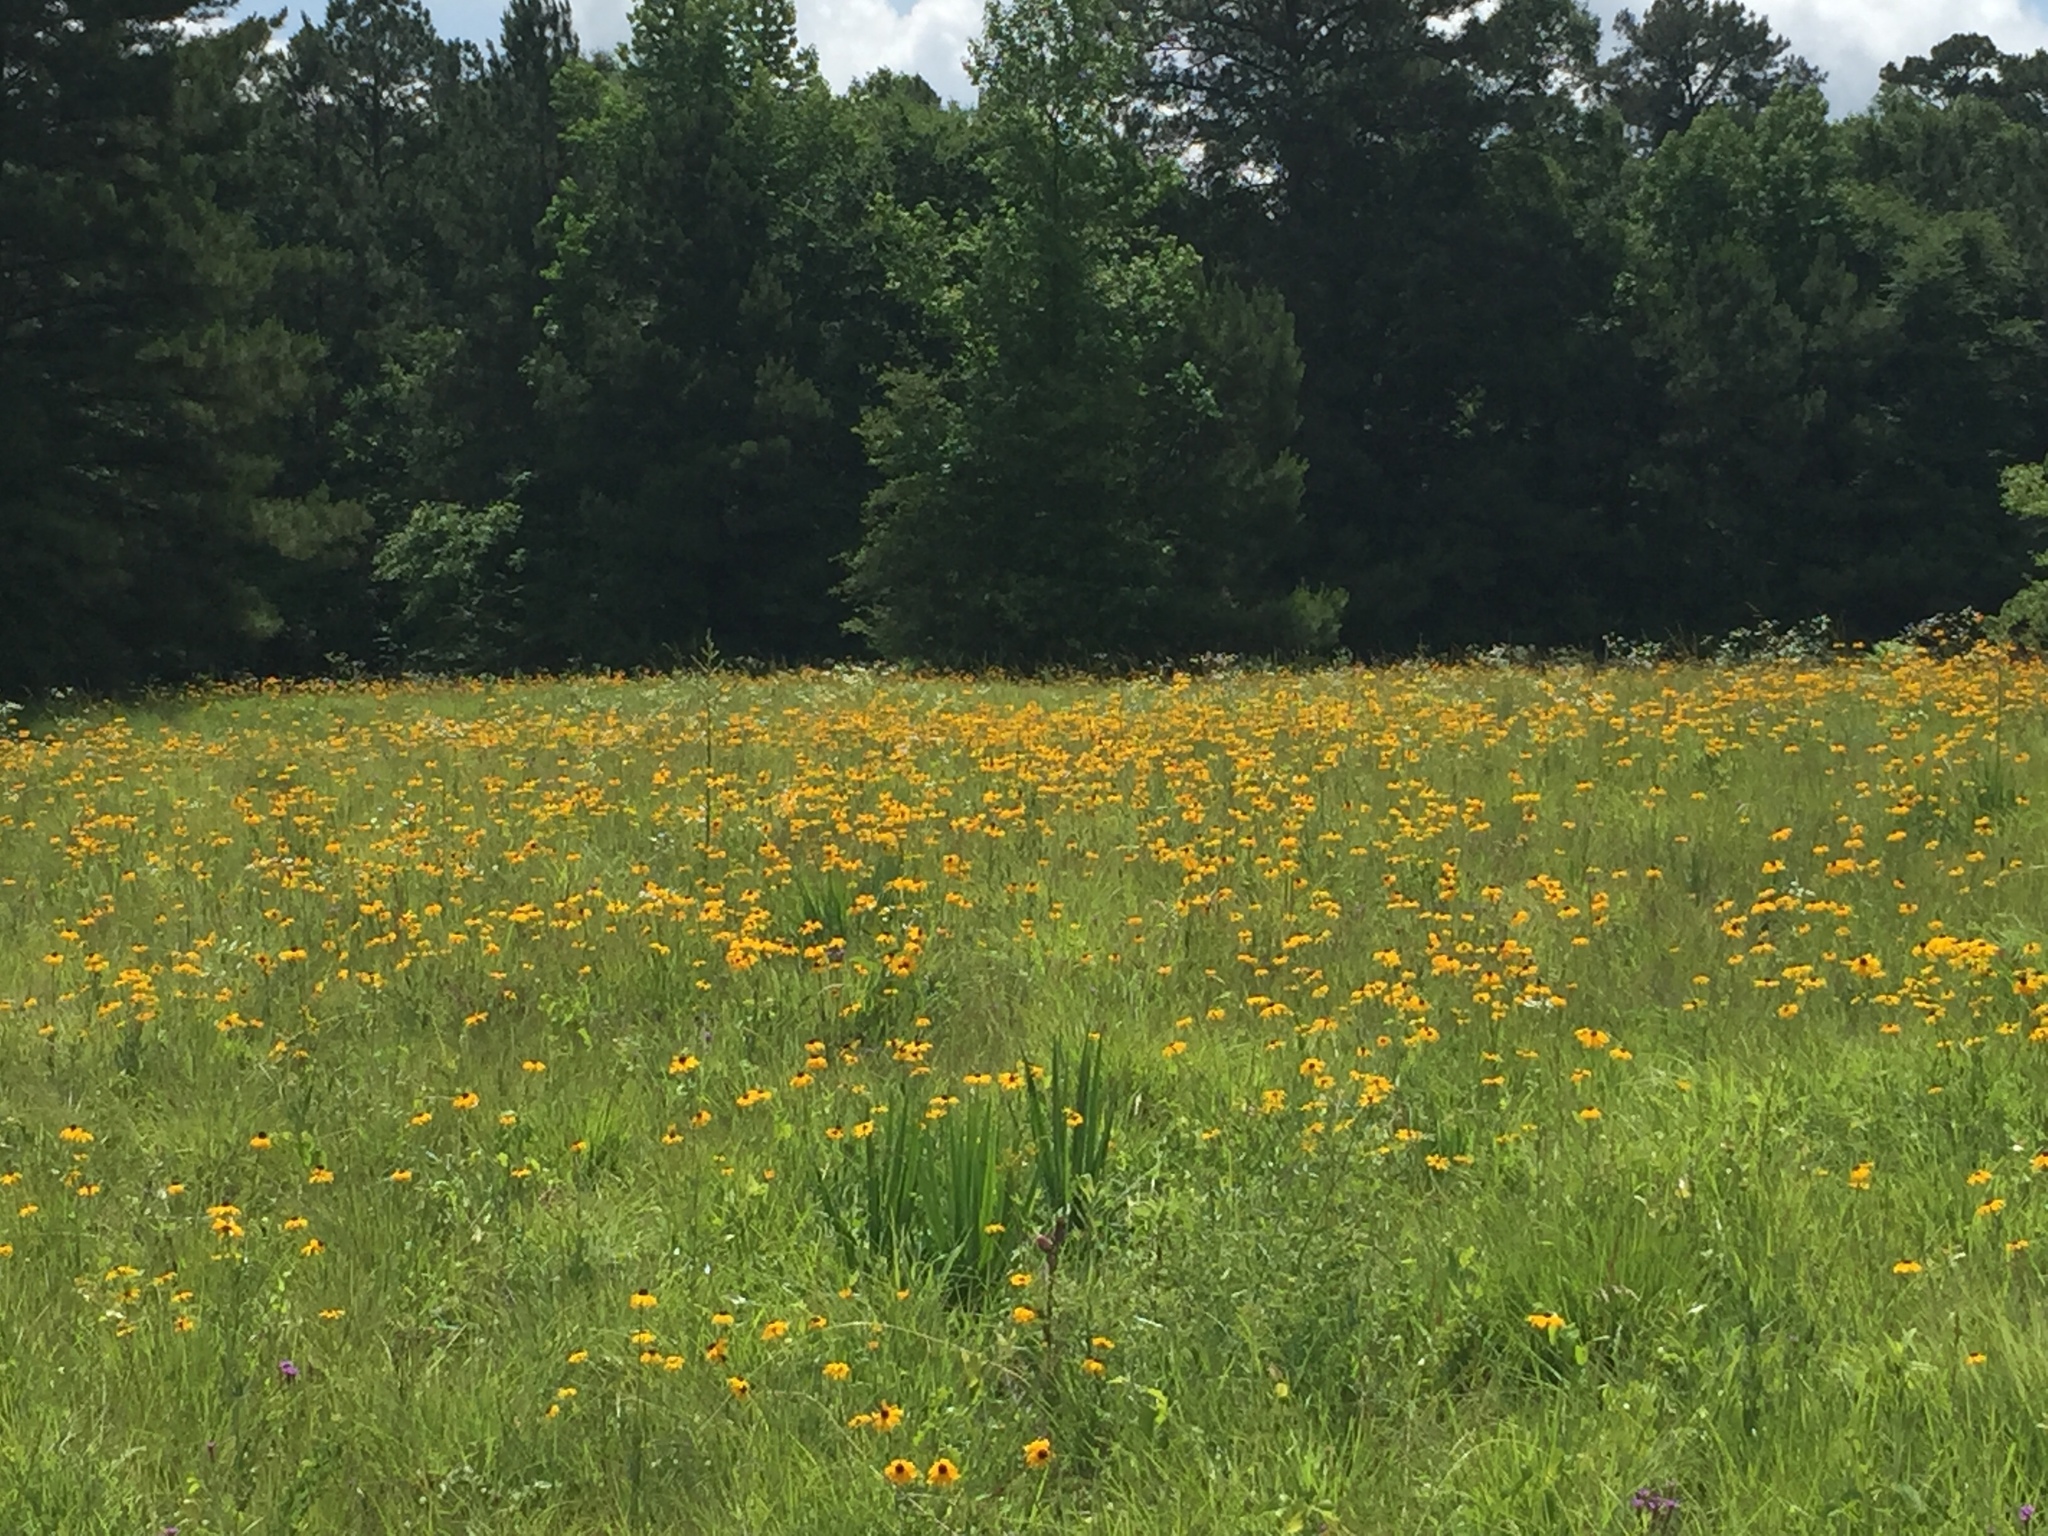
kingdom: Plantae
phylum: Tracheophyta
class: Magnoliopsida
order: Asterales
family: Asteraceae
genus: Rudbeckia
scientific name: Rudbeckia hirta
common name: Black-eyed-susan
